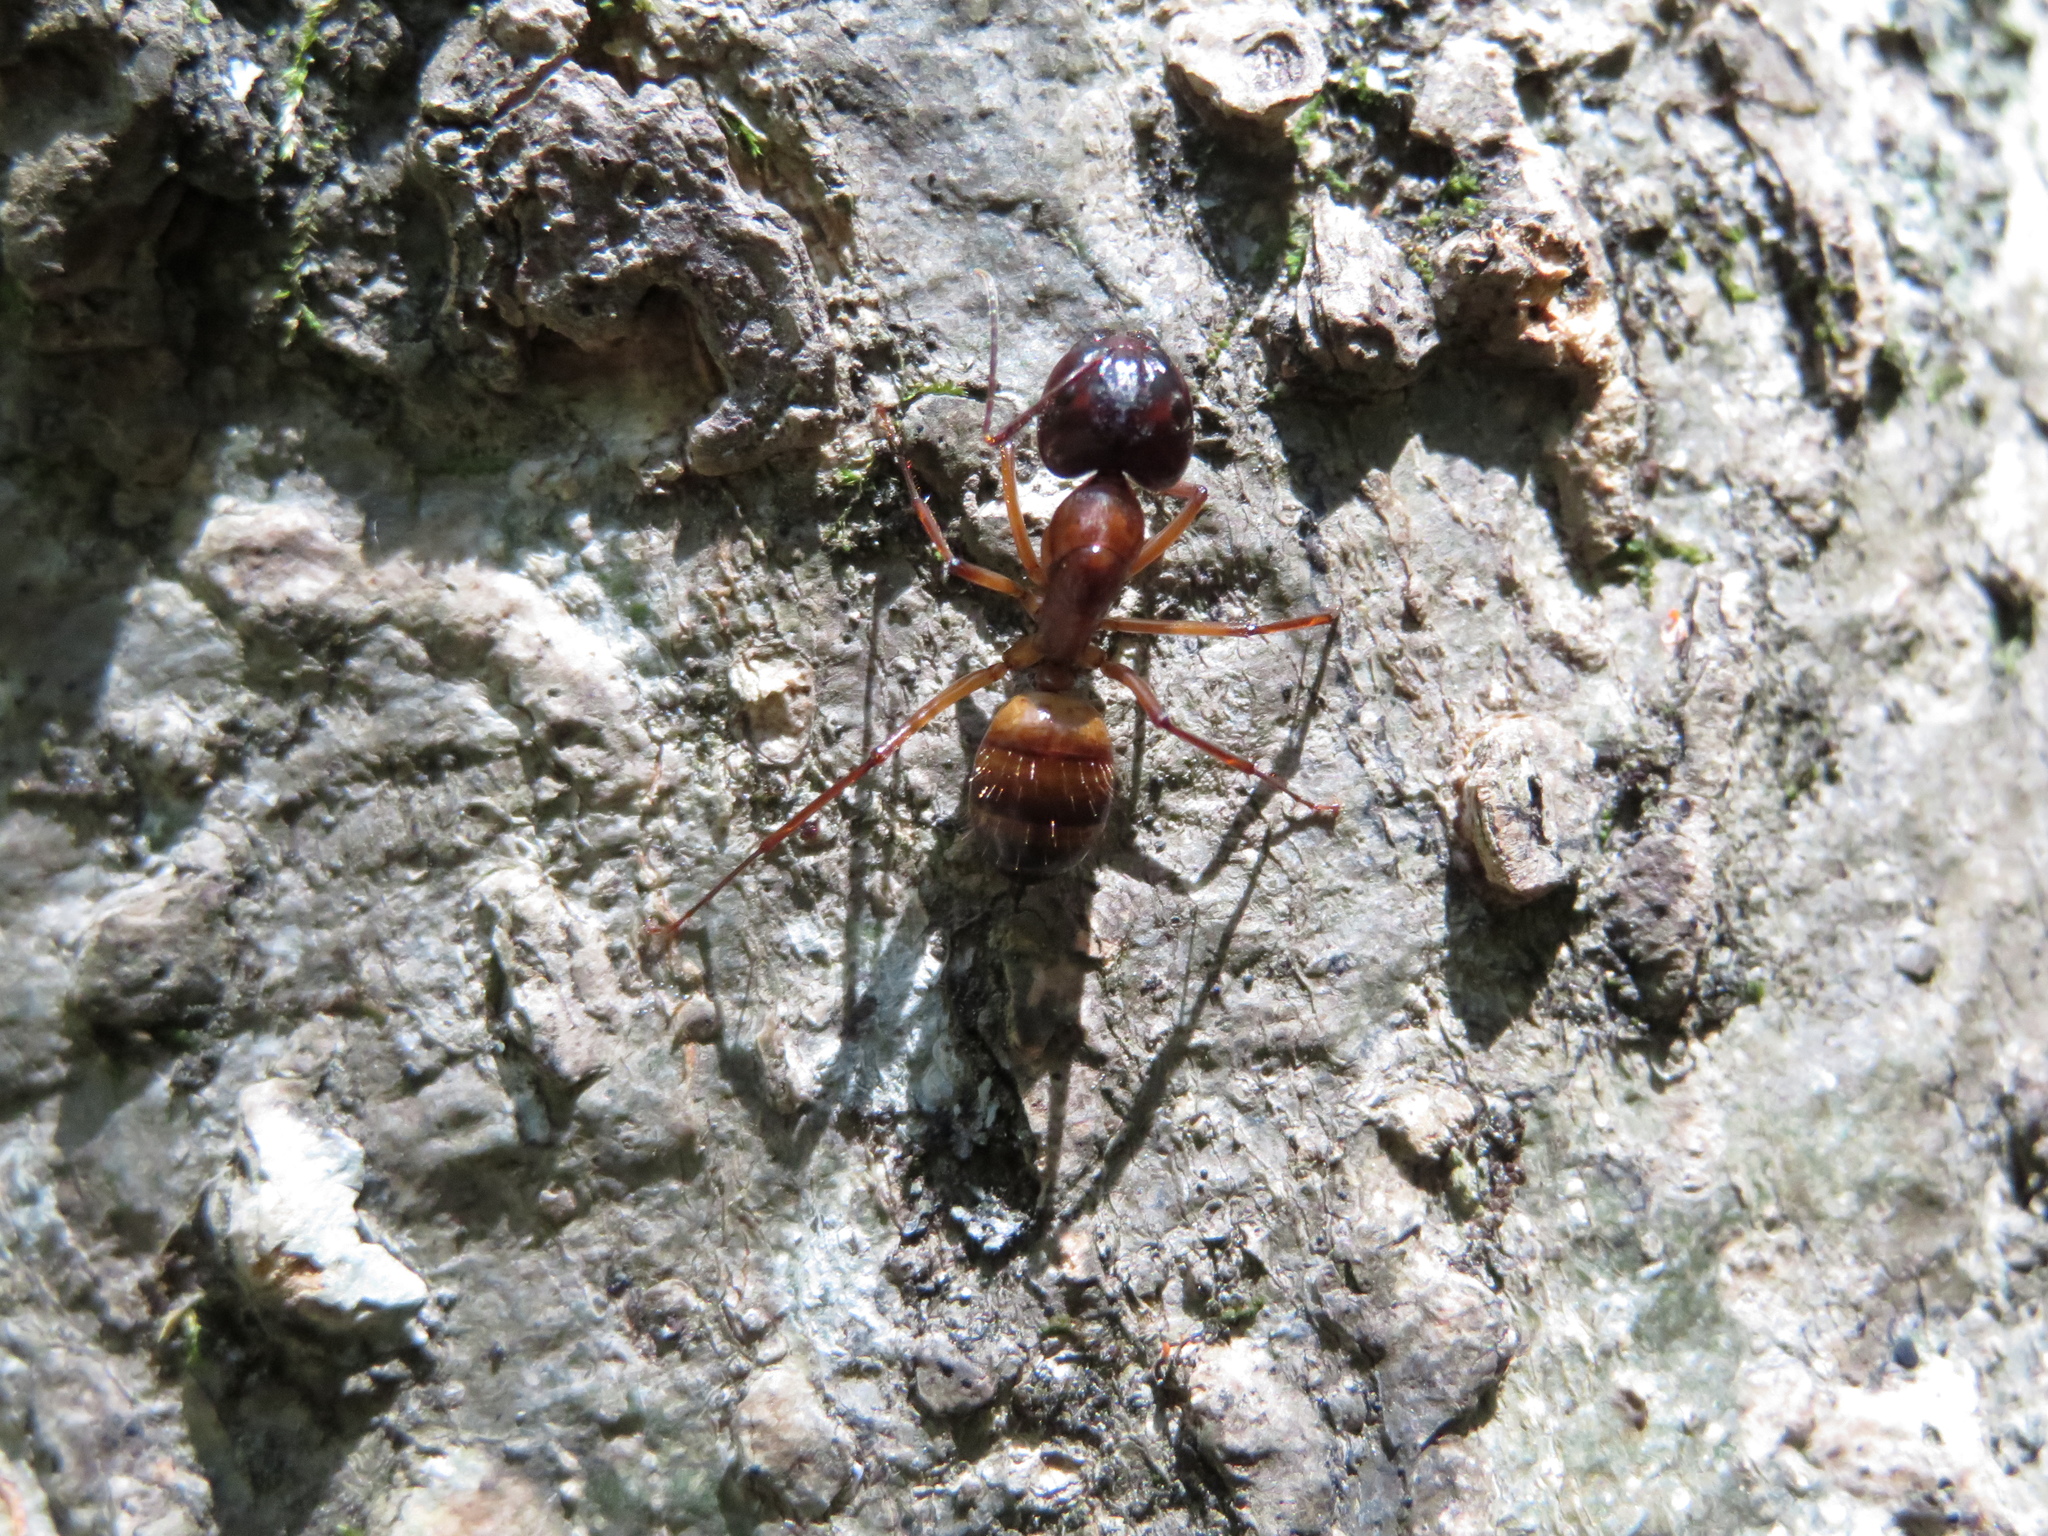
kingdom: Animalia
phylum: Arthropoda
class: Insecta
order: Hymenoptera
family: Formicidae
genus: Camponotus
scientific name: Camponotus americanus
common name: American carpenter ant
